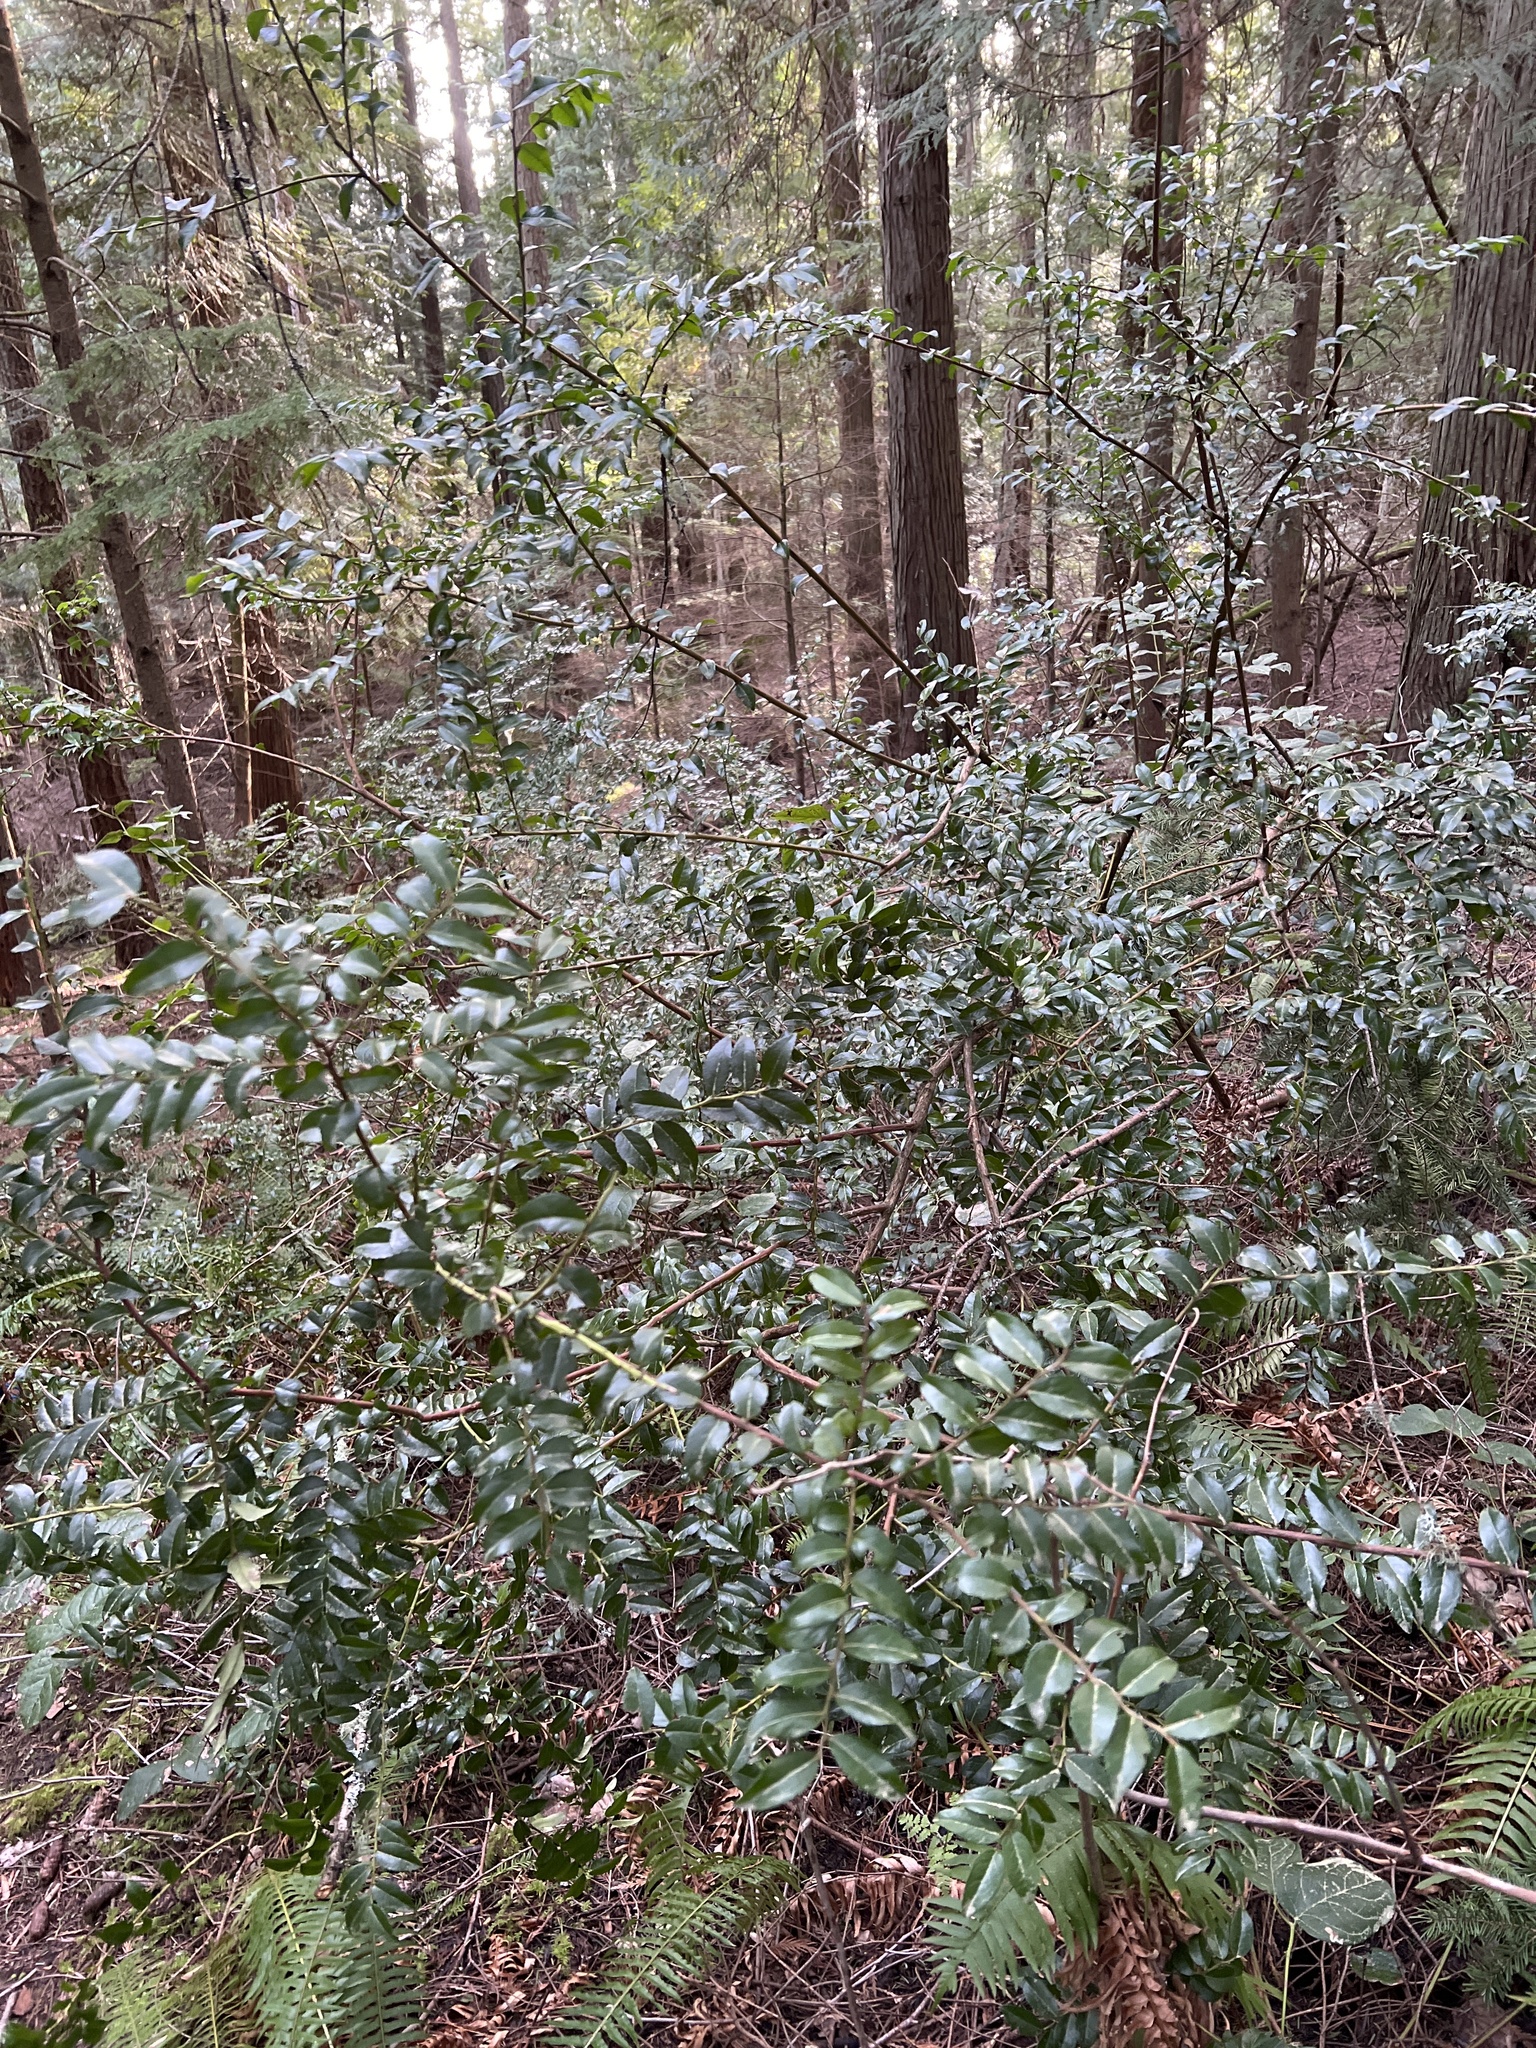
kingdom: Plantae
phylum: Tracheophyta
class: Magnoliopsida
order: Ericales
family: Ericaceae
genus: Vaccinium
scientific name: Vaccinium ovatum
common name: California-huckleberry
